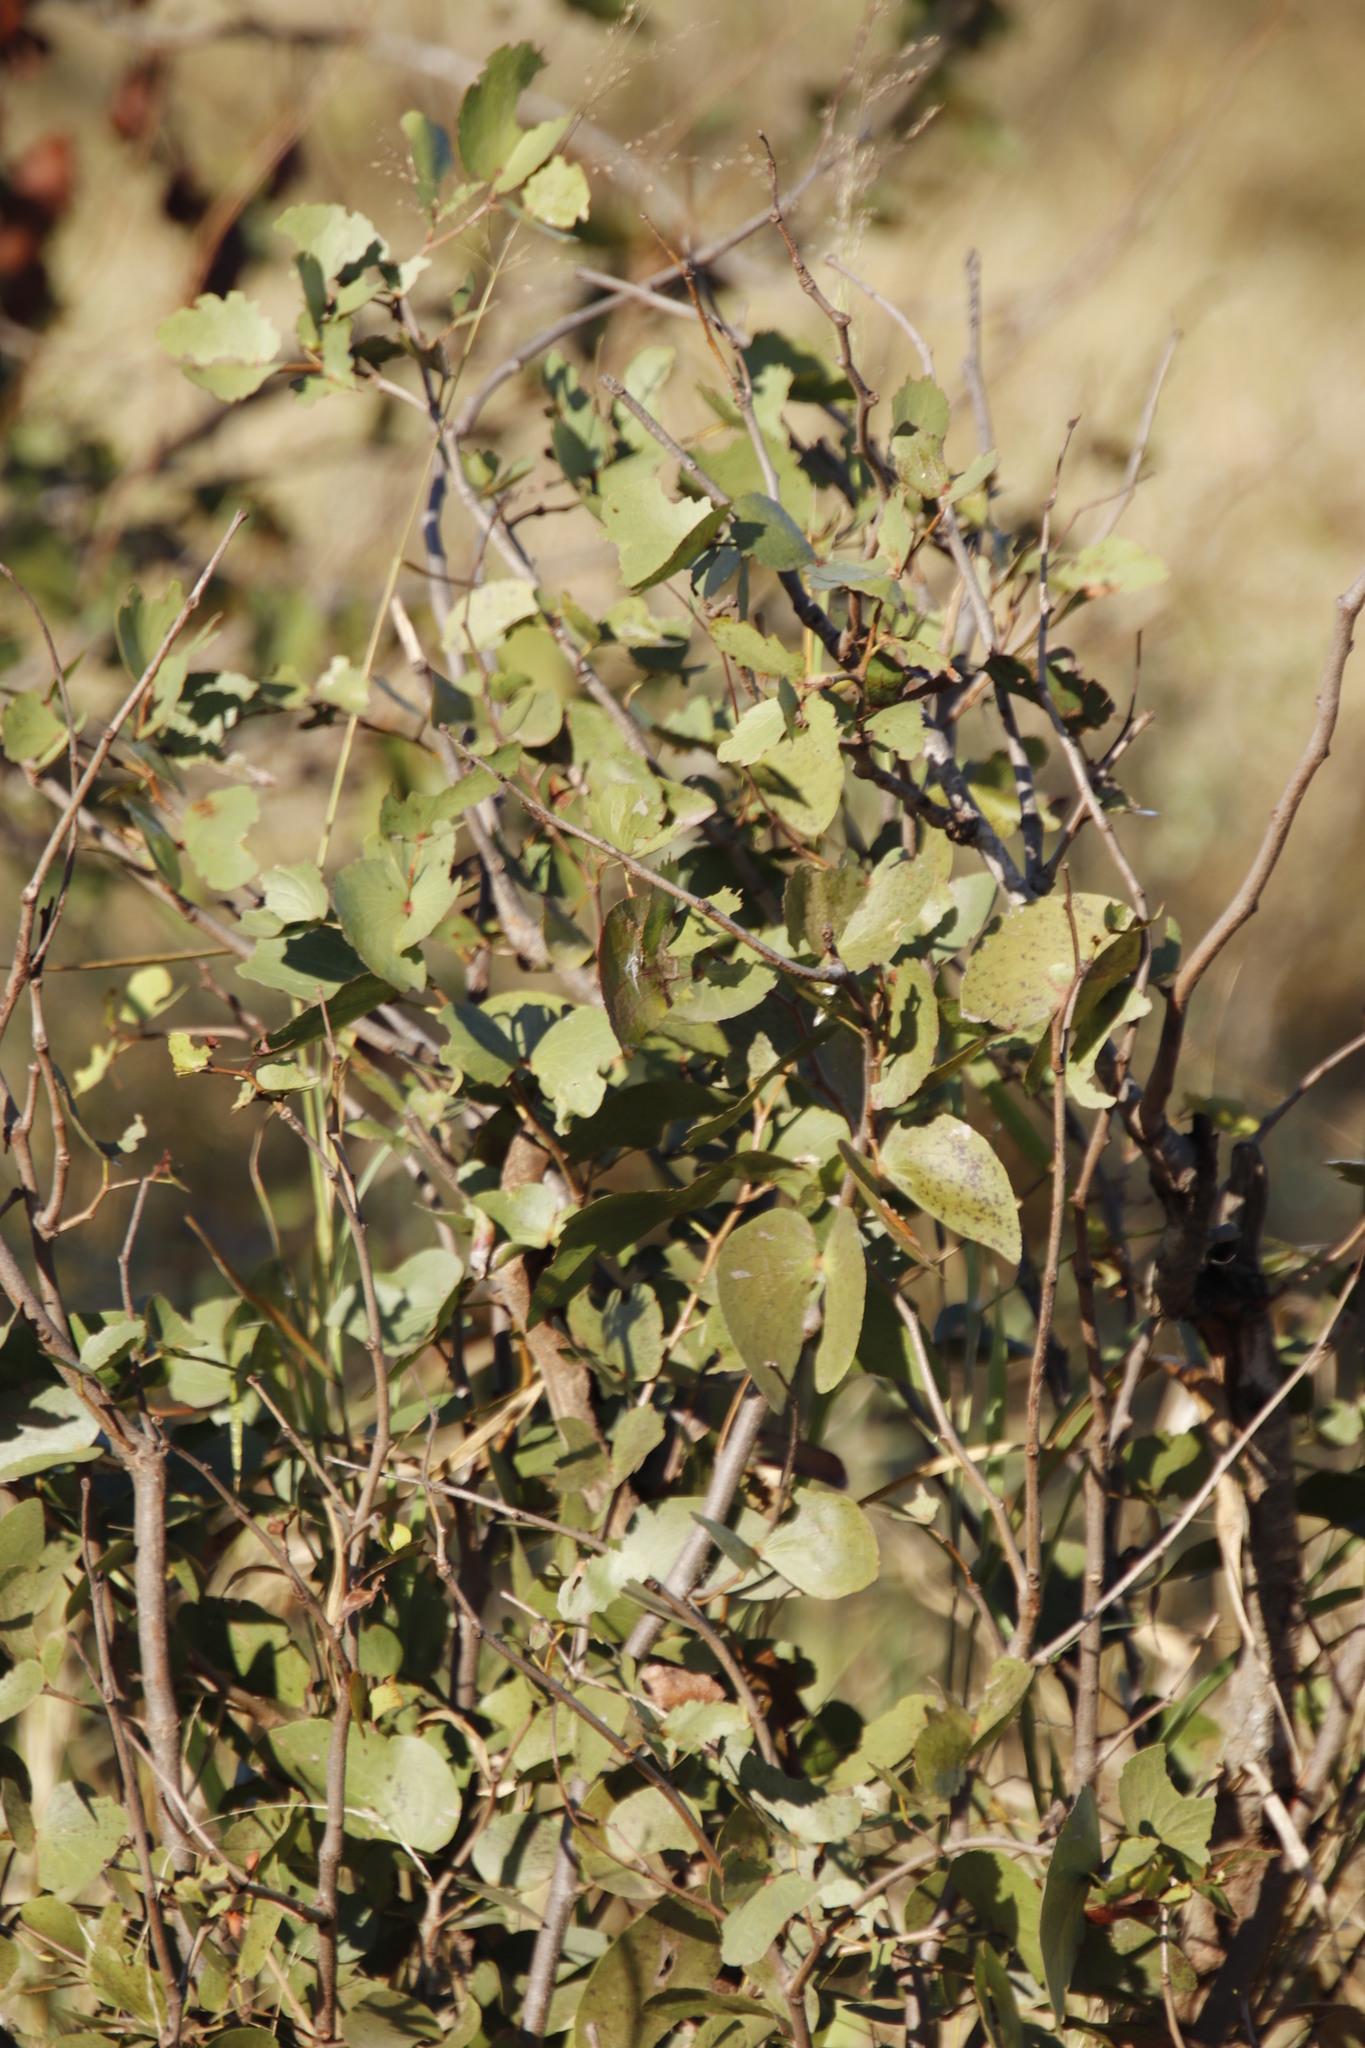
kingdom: Plantae
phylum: Tracheophyta
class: Magnoliopsida
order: Fabales
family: Fabaceae
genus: Colophospermum
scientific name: Colophospermum mopane
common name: Mopane
